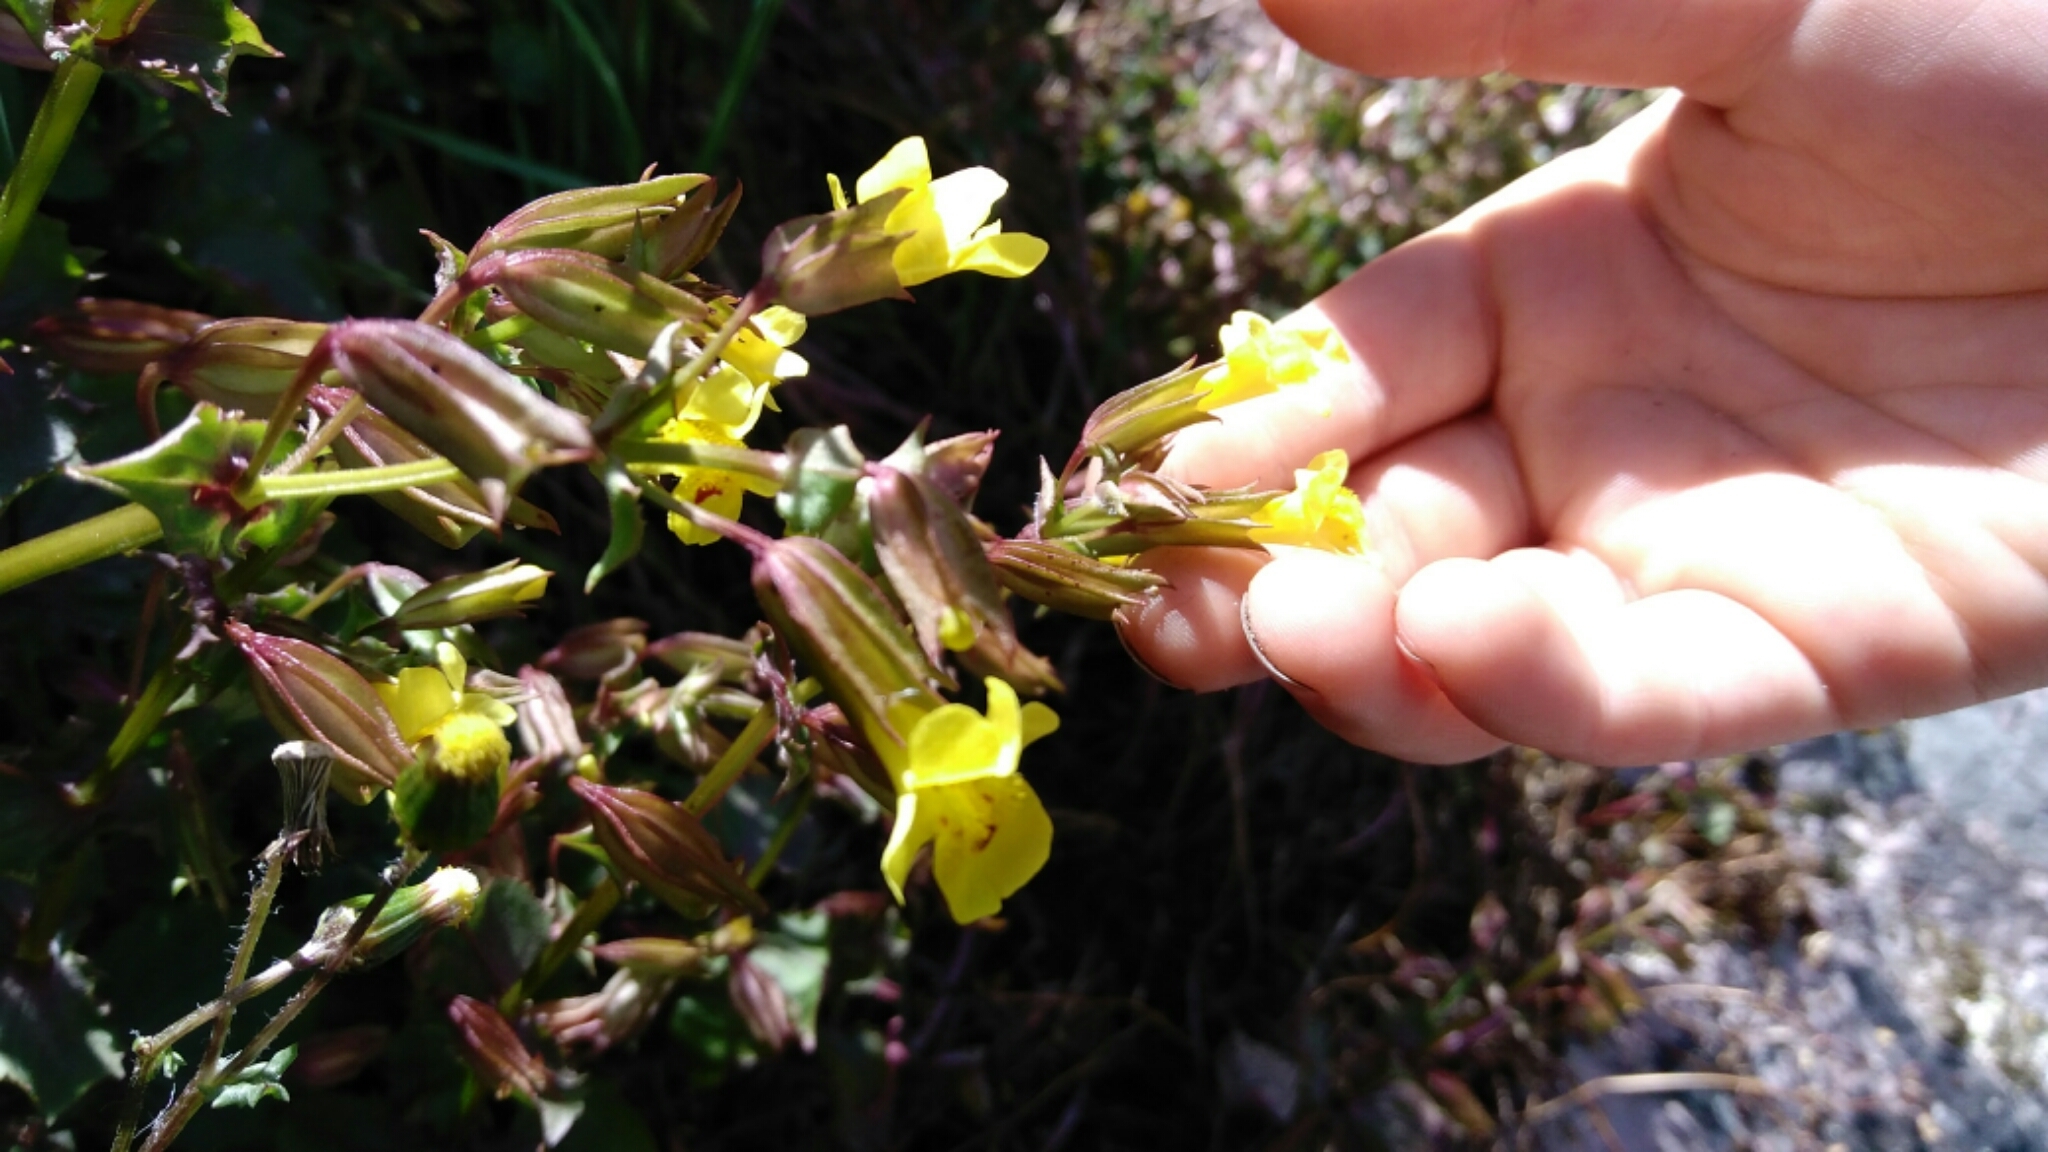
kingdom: Plantae
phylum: Tracheophyta
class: Magnoliopsida
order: Lamiales
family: Phrymaceae
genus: Erythranthe
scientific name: Erythranthe nasuta
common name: Sooke monkeyflower
